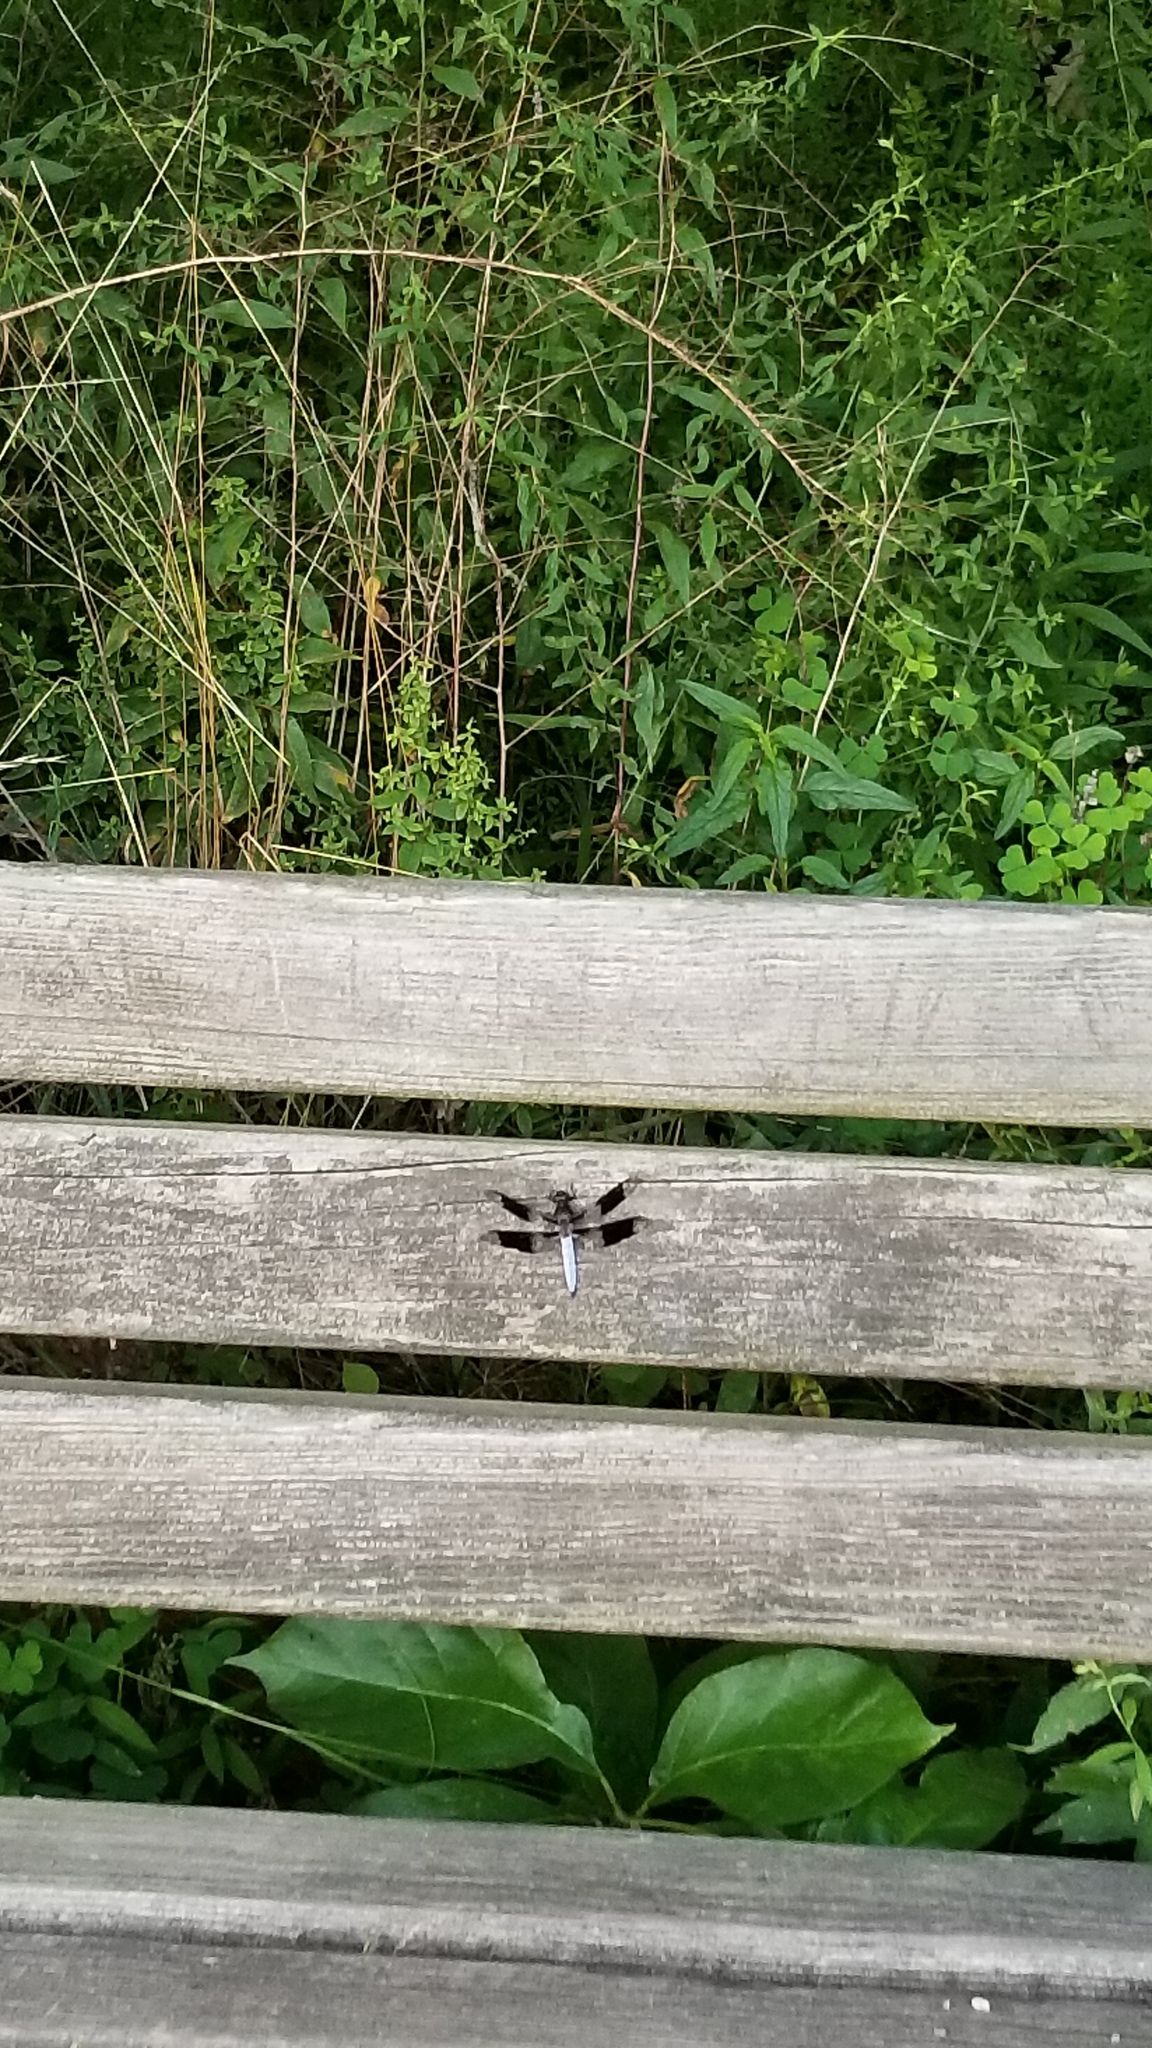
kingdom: Animalia
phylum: Arthropoda
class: Insecta
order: Odonata
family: Libellulidae
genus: Plathemis
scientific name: Plathemis lydia
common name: Common whitetail
